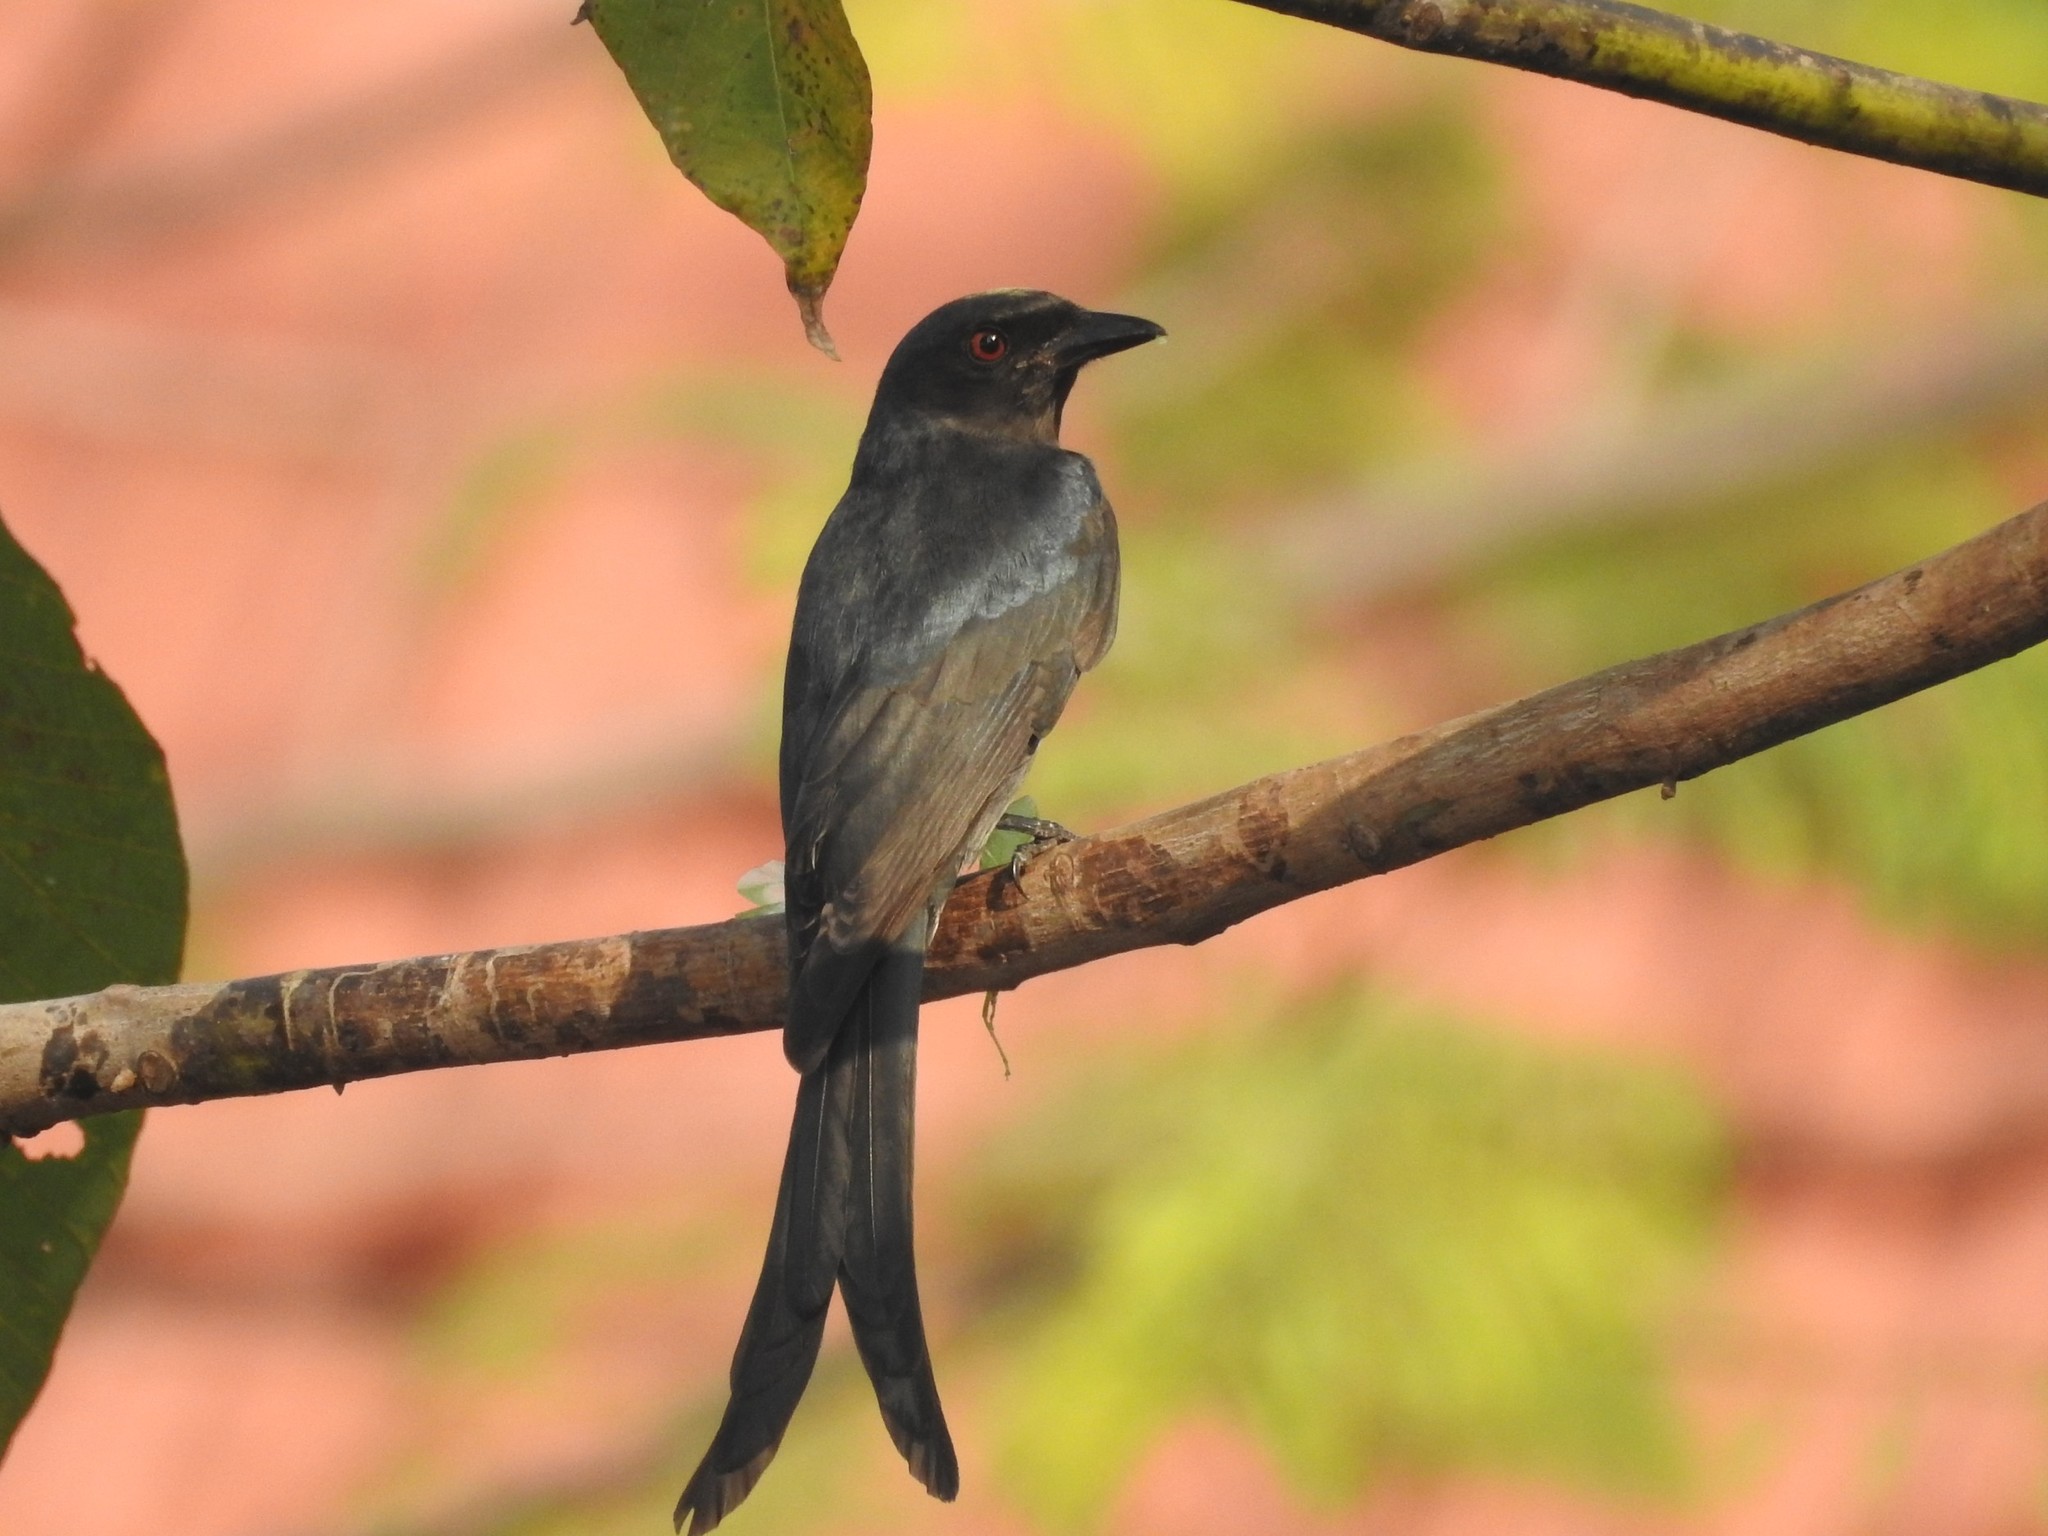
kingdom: Animalia
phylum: Chordata
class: Aves
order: Passeriformes
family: Dicruridae
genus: Dicrurus
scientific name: Dicrurus macrocercus
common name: Black drongo
